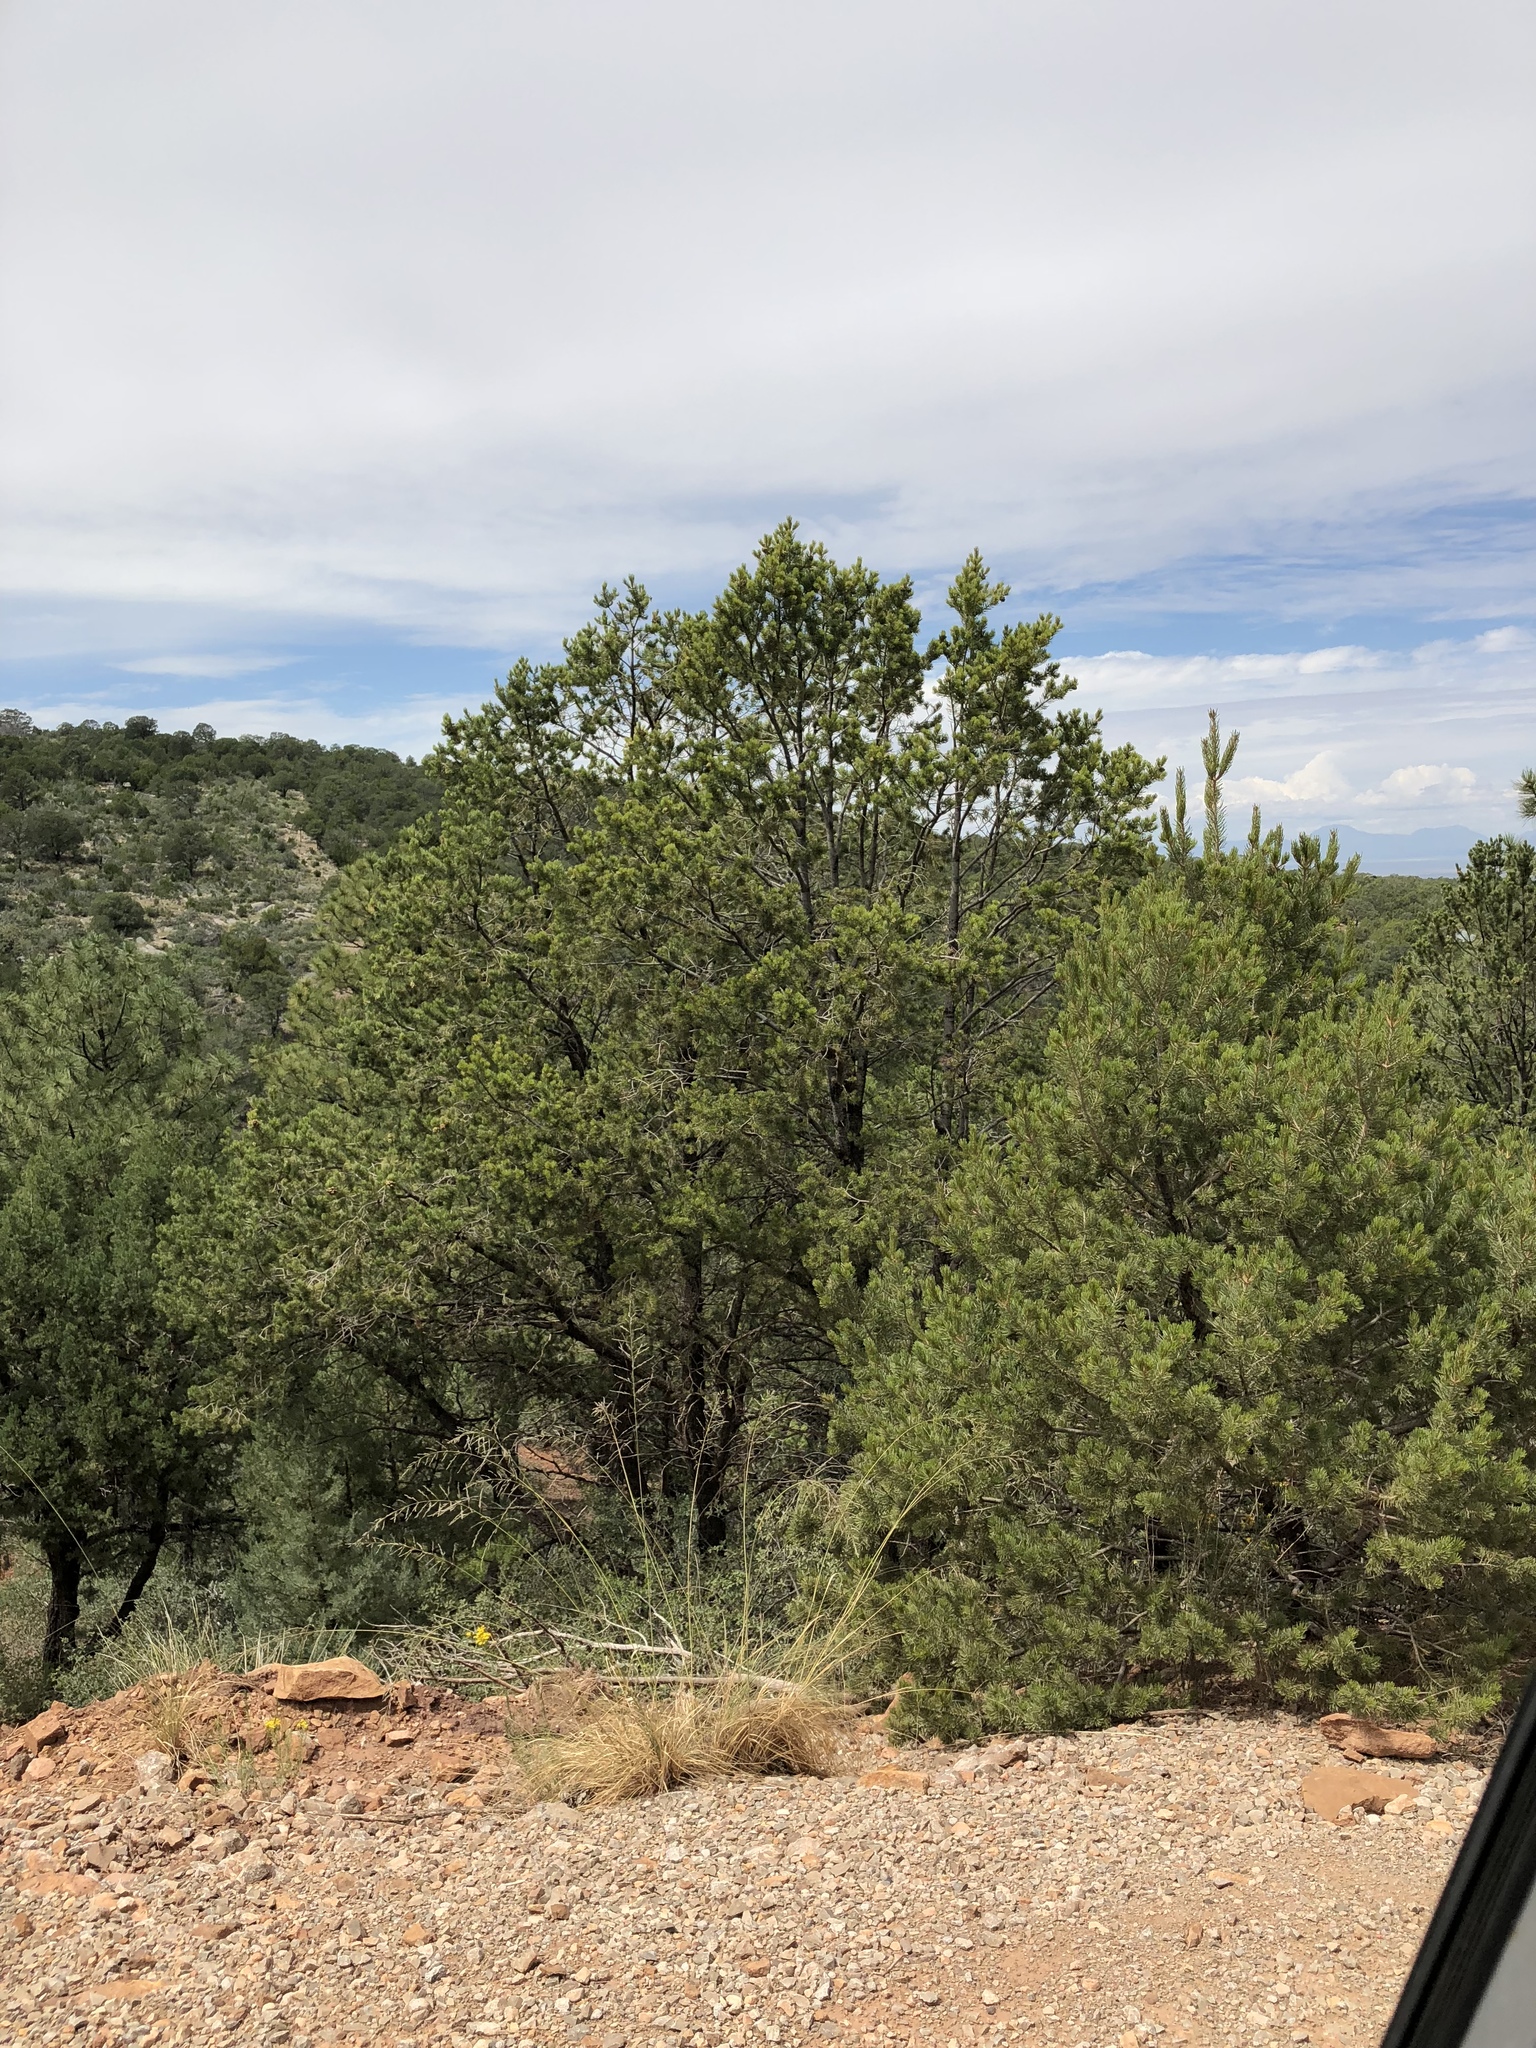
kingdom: Plantae
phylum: Tracheophyta
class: Pinopsida
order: Pinales
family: Pinaceae
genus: Pinus
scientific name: Pinus edulis
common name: Colorado pinyon
